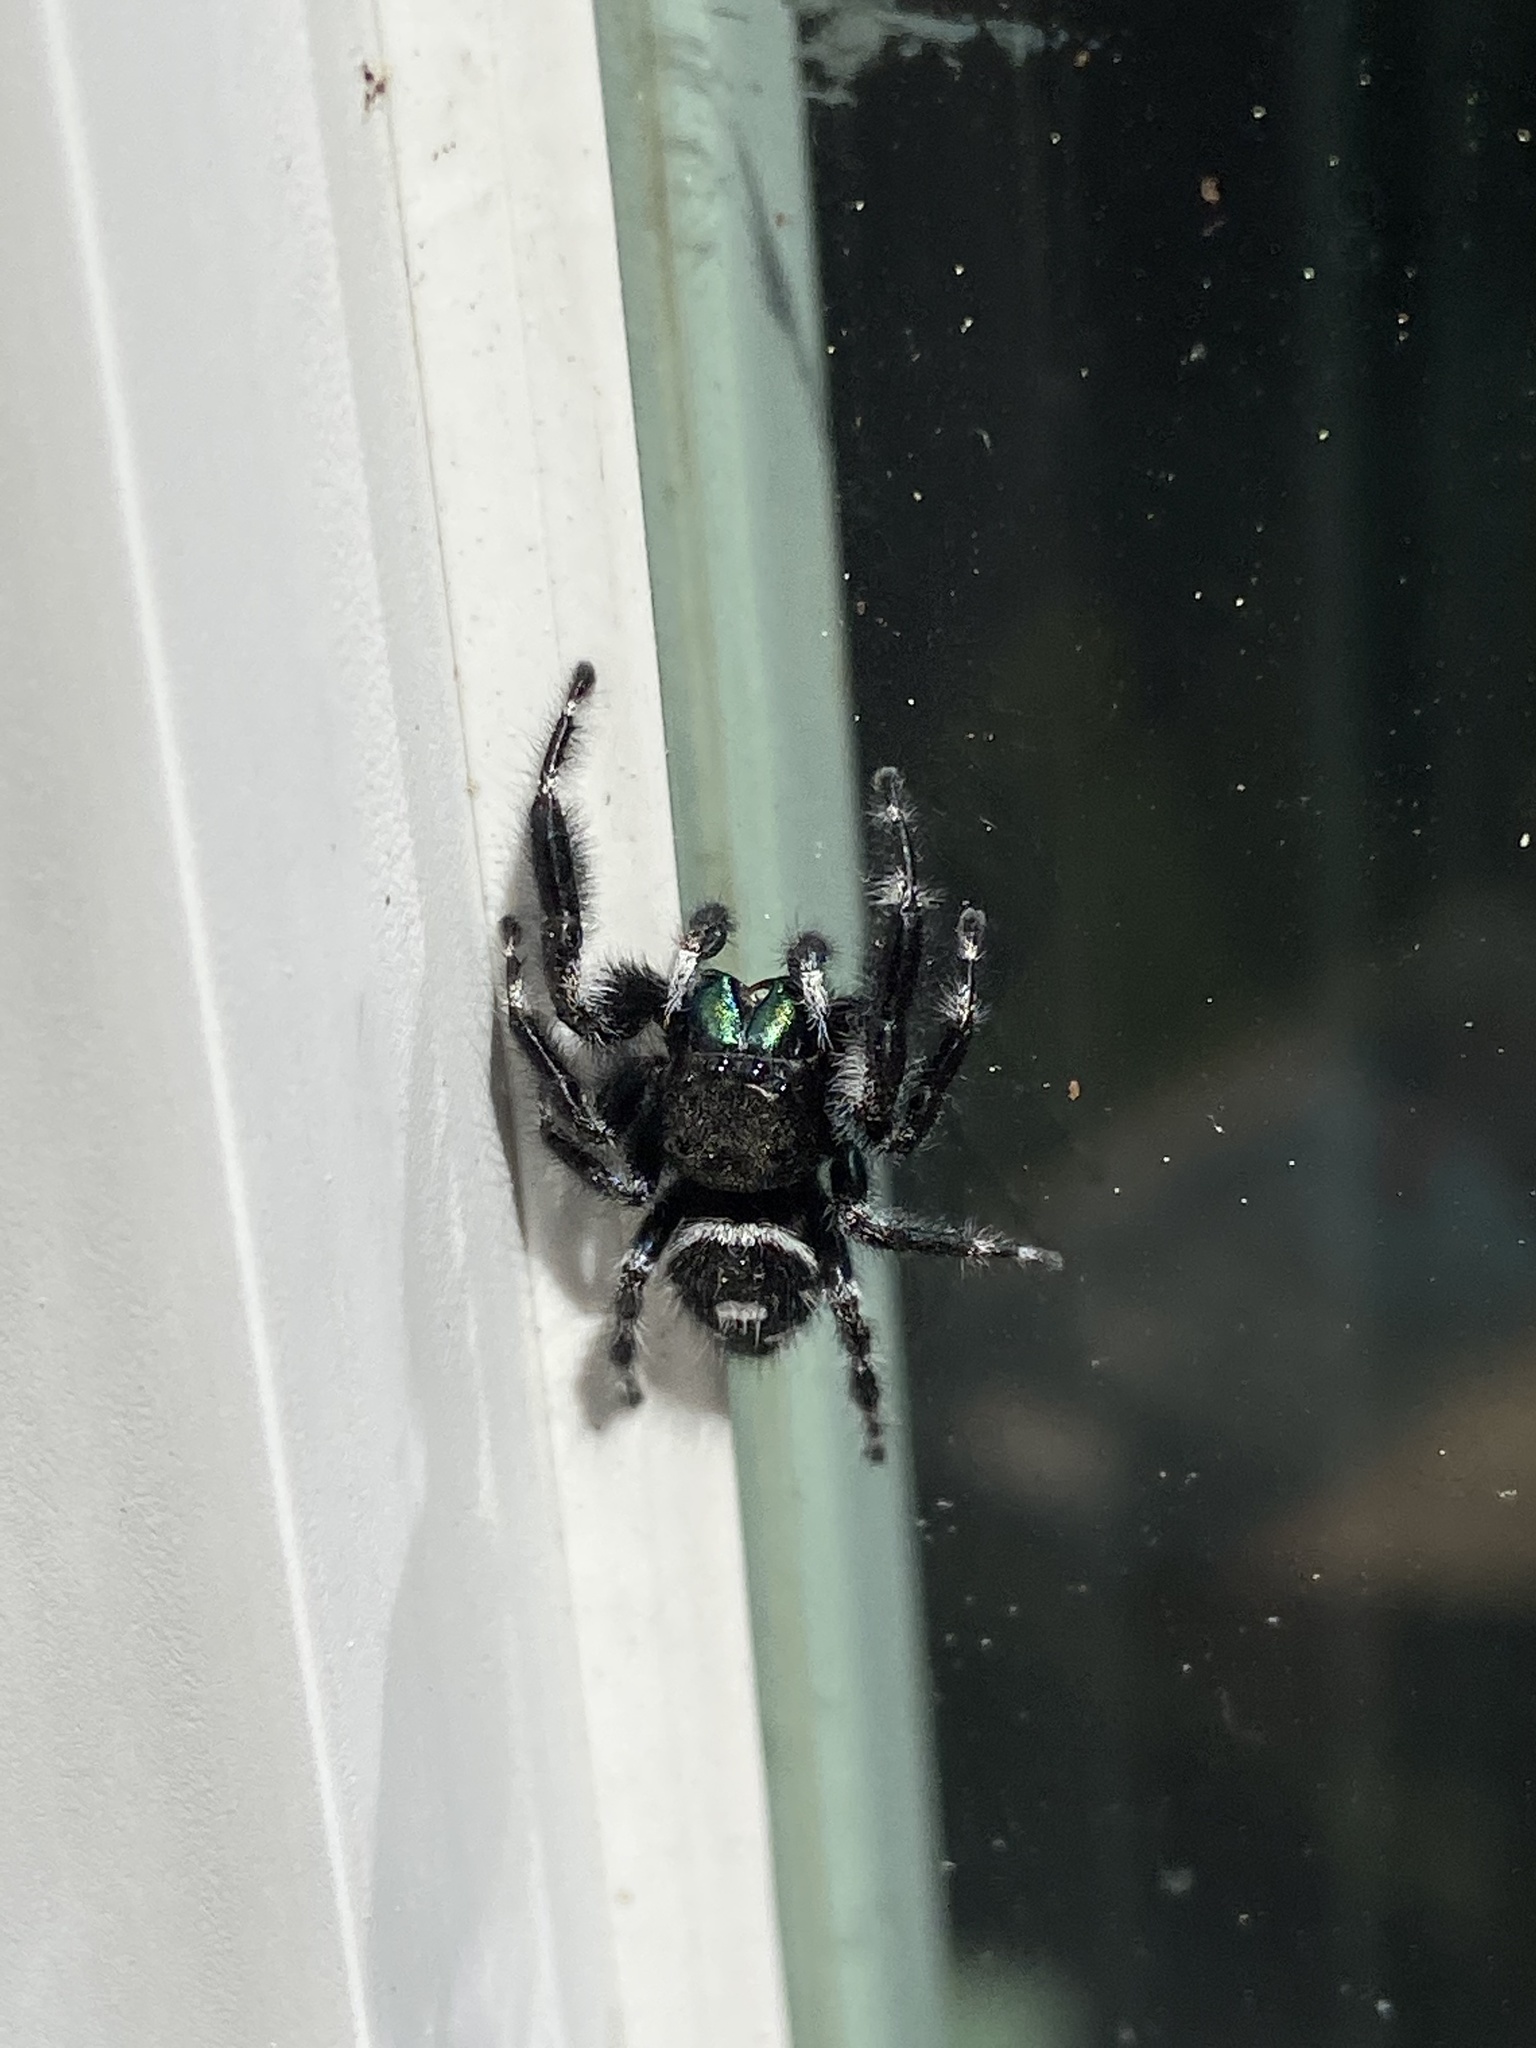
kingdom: Animalia
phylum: Arthropoda
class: Arachnida
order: Araneae
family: Salticidae
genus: Phidippus
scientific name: Phidippus audax
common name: Bold jumper
